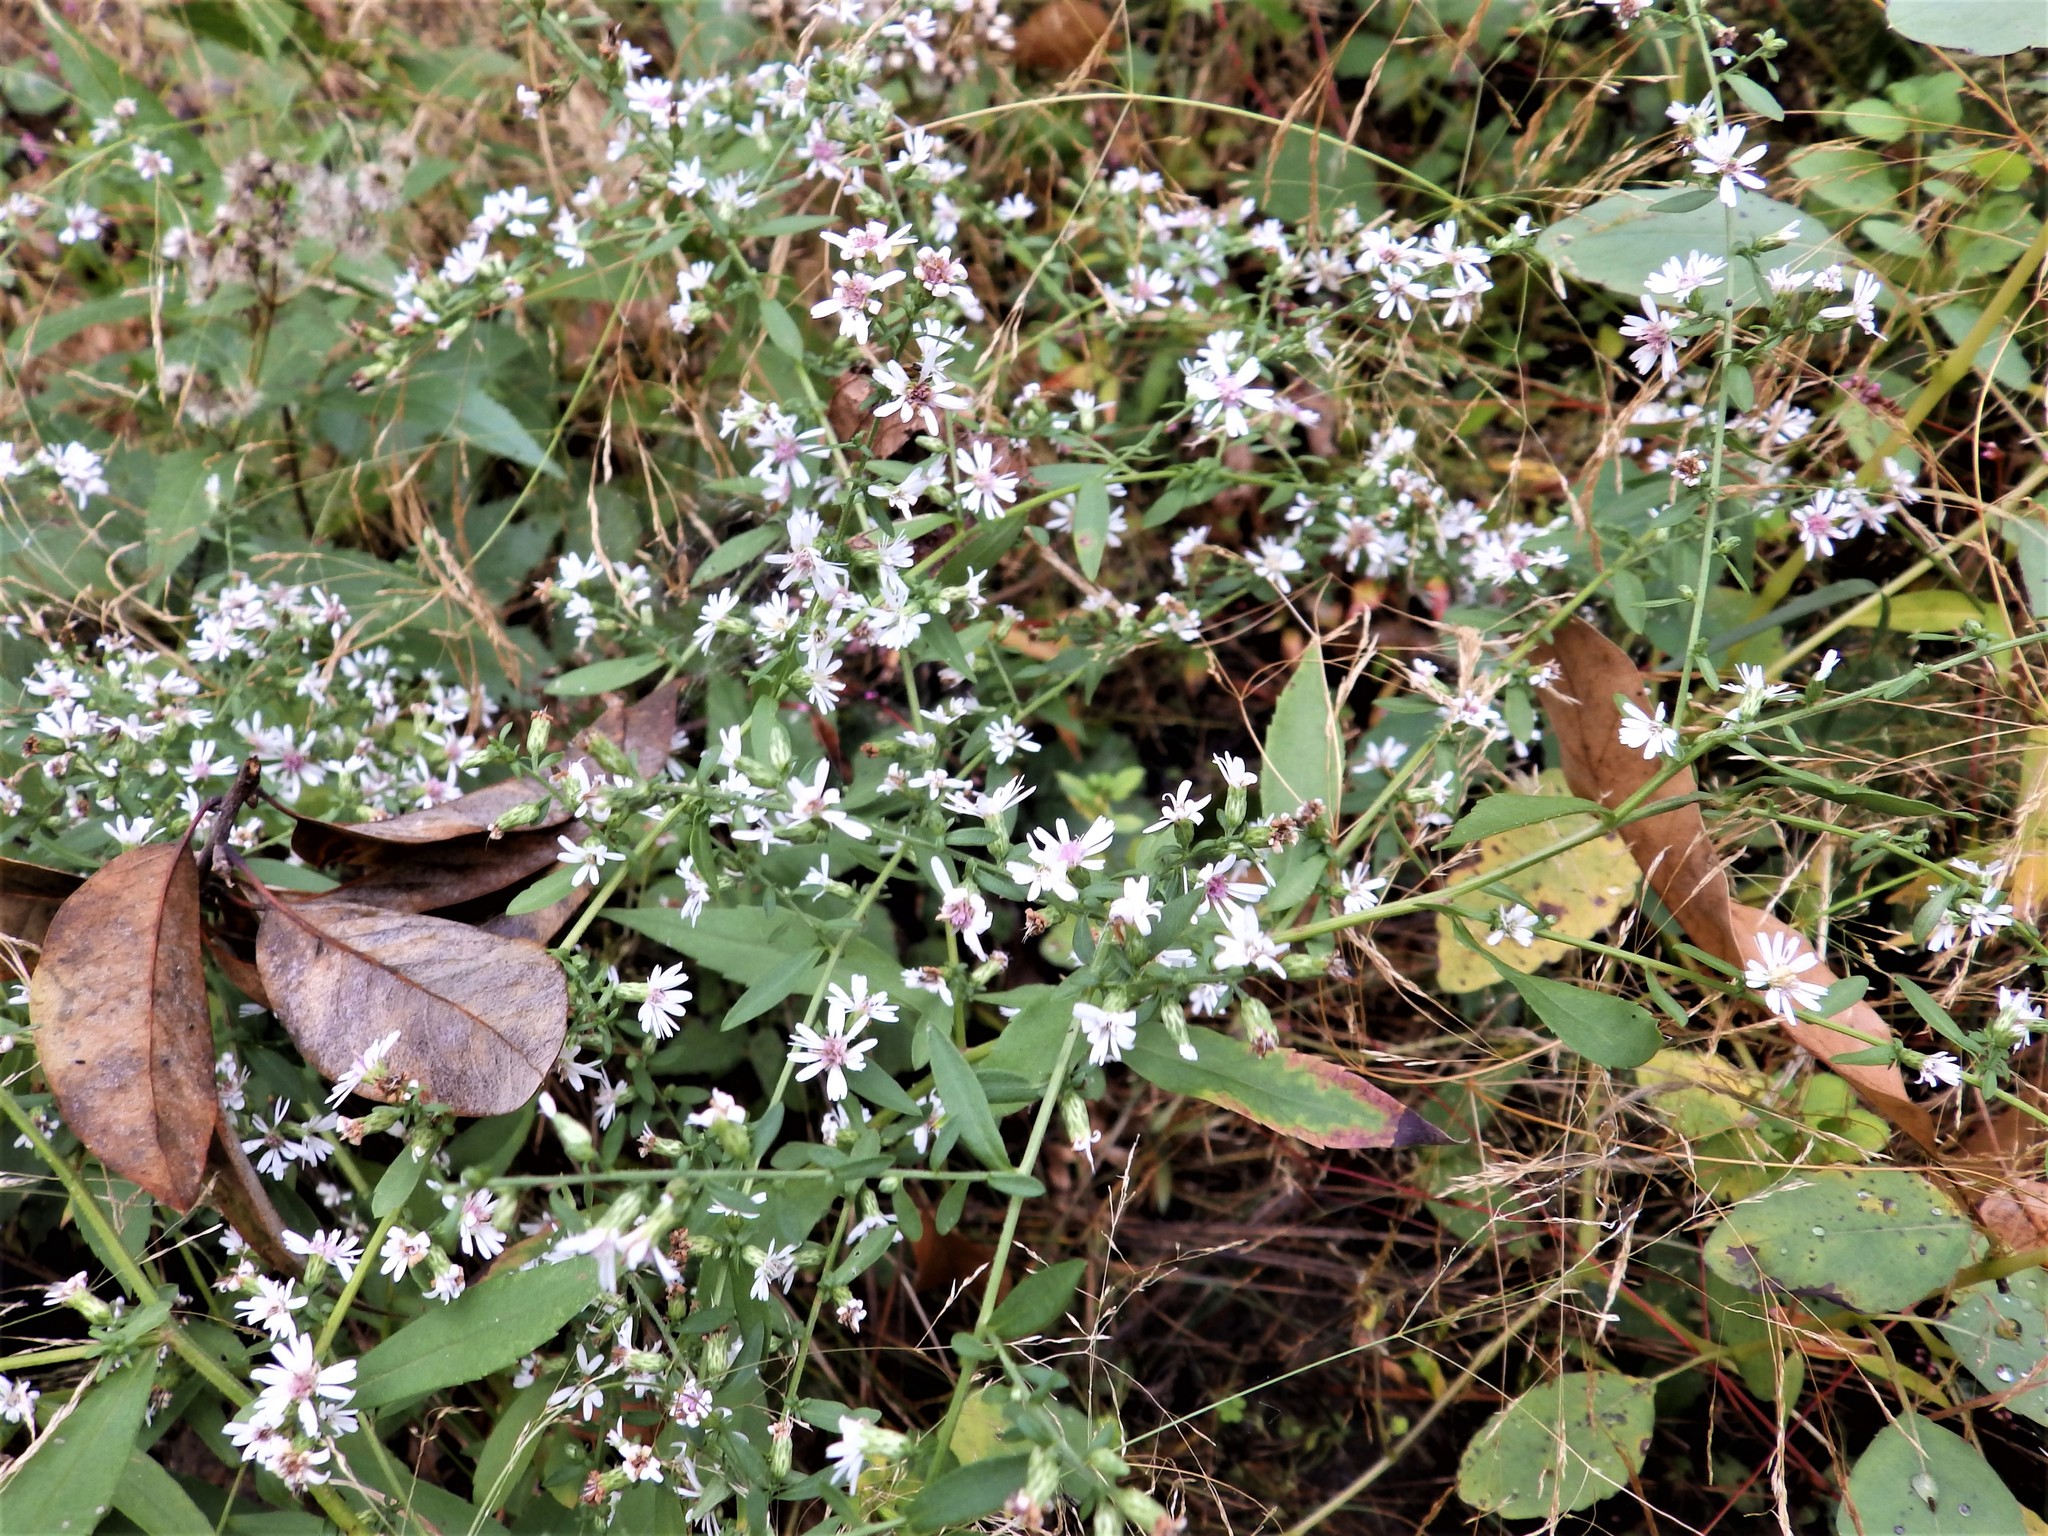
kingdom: Plantae
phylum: Tracheophyta
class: Magnoliopsida
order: Asterales
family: Asteraceae
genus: Symphyotrichum
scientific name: Symphyotrichum lateriflorum
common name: Calico aster
